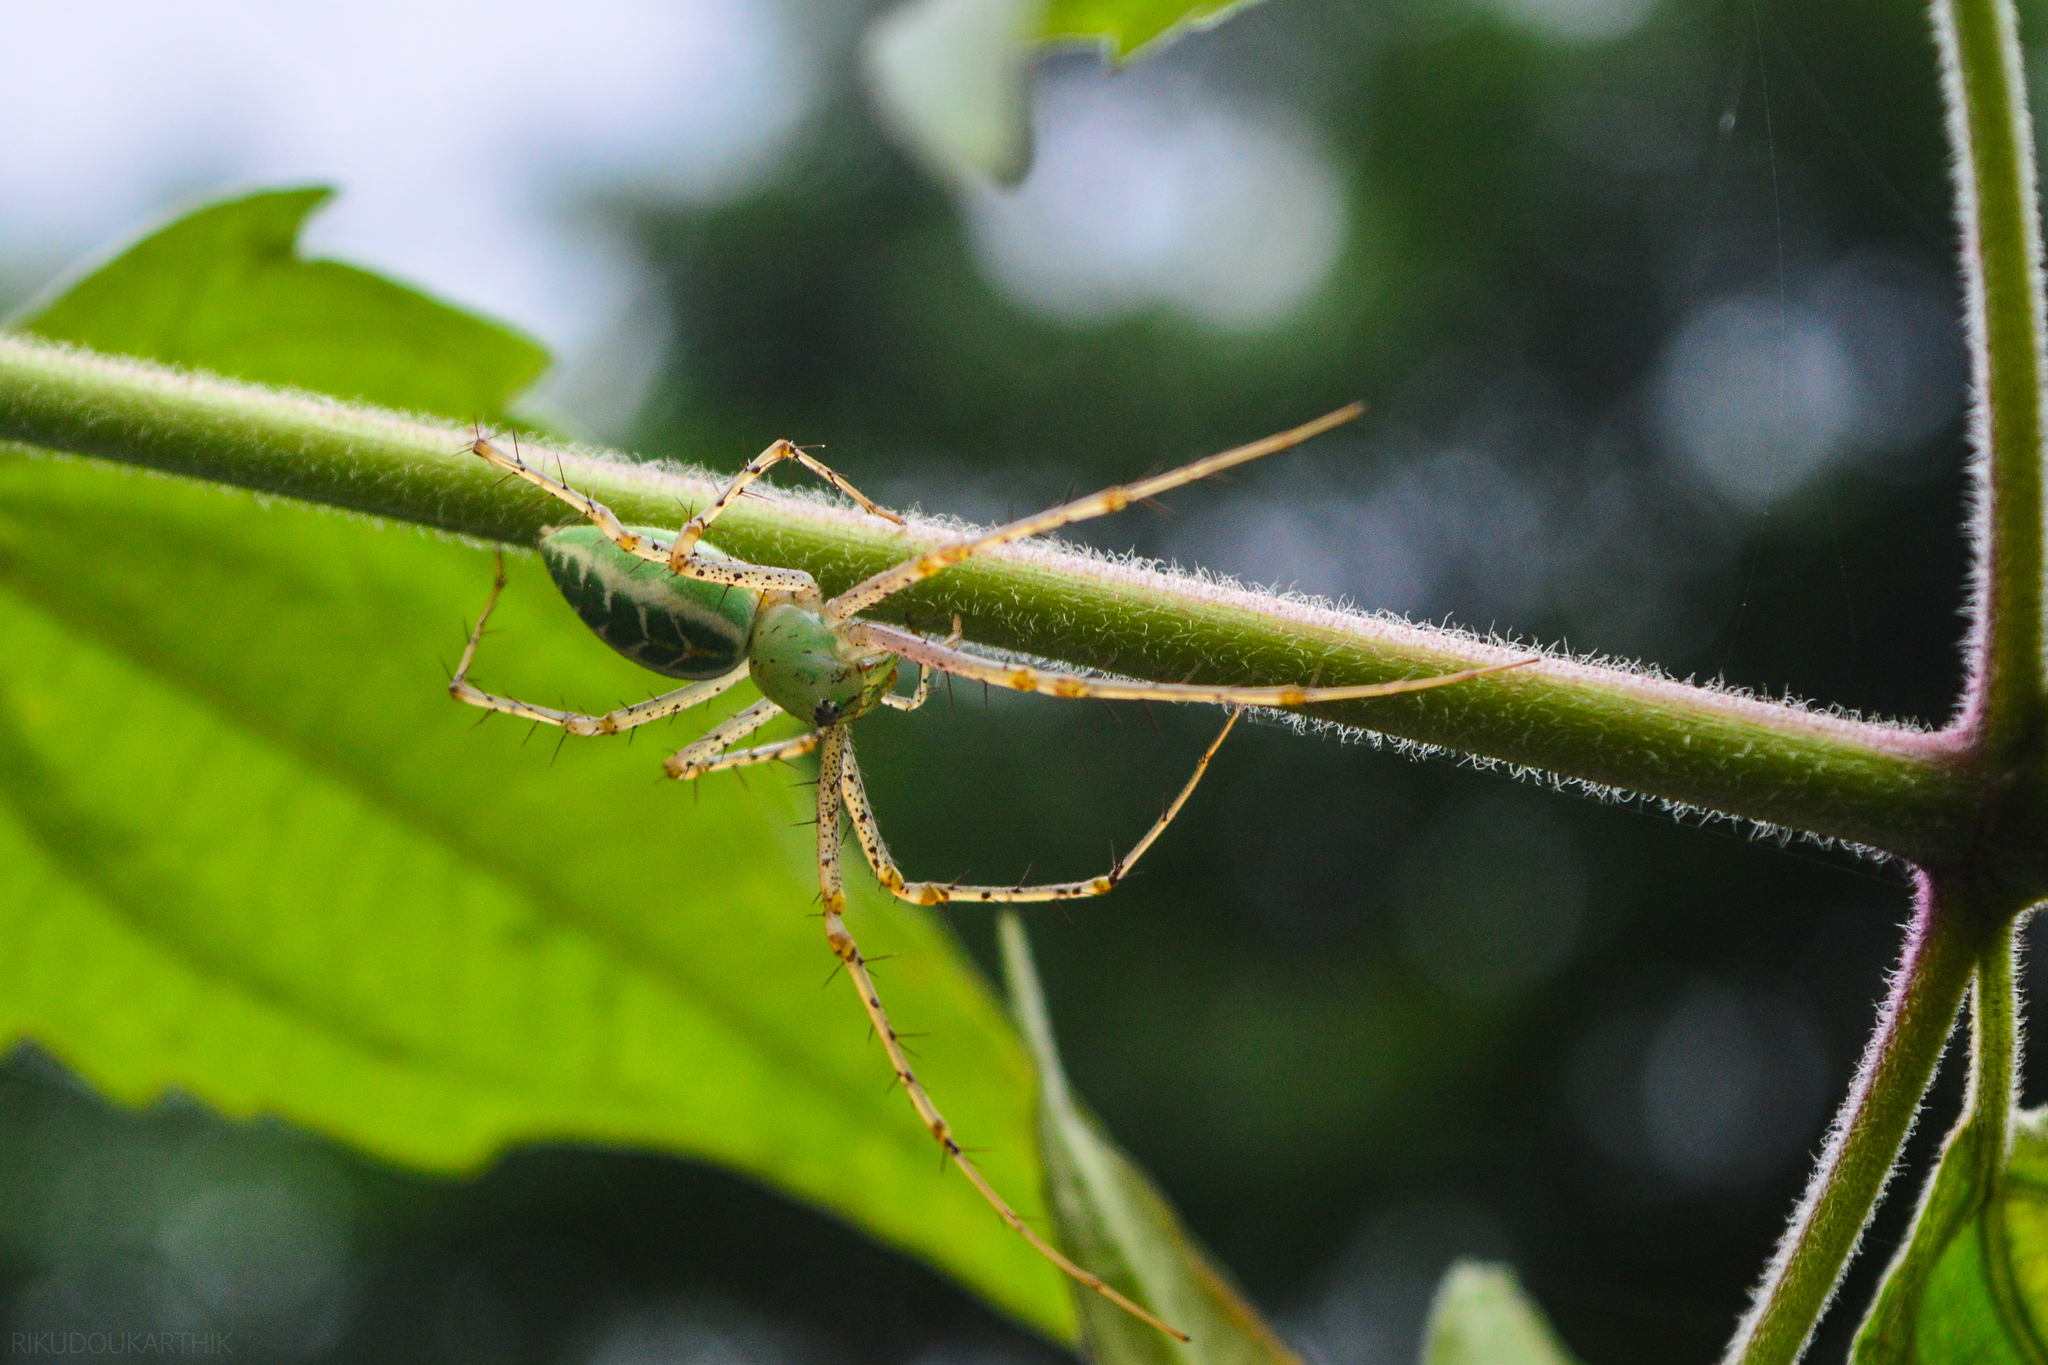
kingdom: Animalia
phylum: Arthropoda
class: Arachnida
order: Araneae
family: Oxyopidae
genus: Peucetia
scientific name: Peucetia viridana
